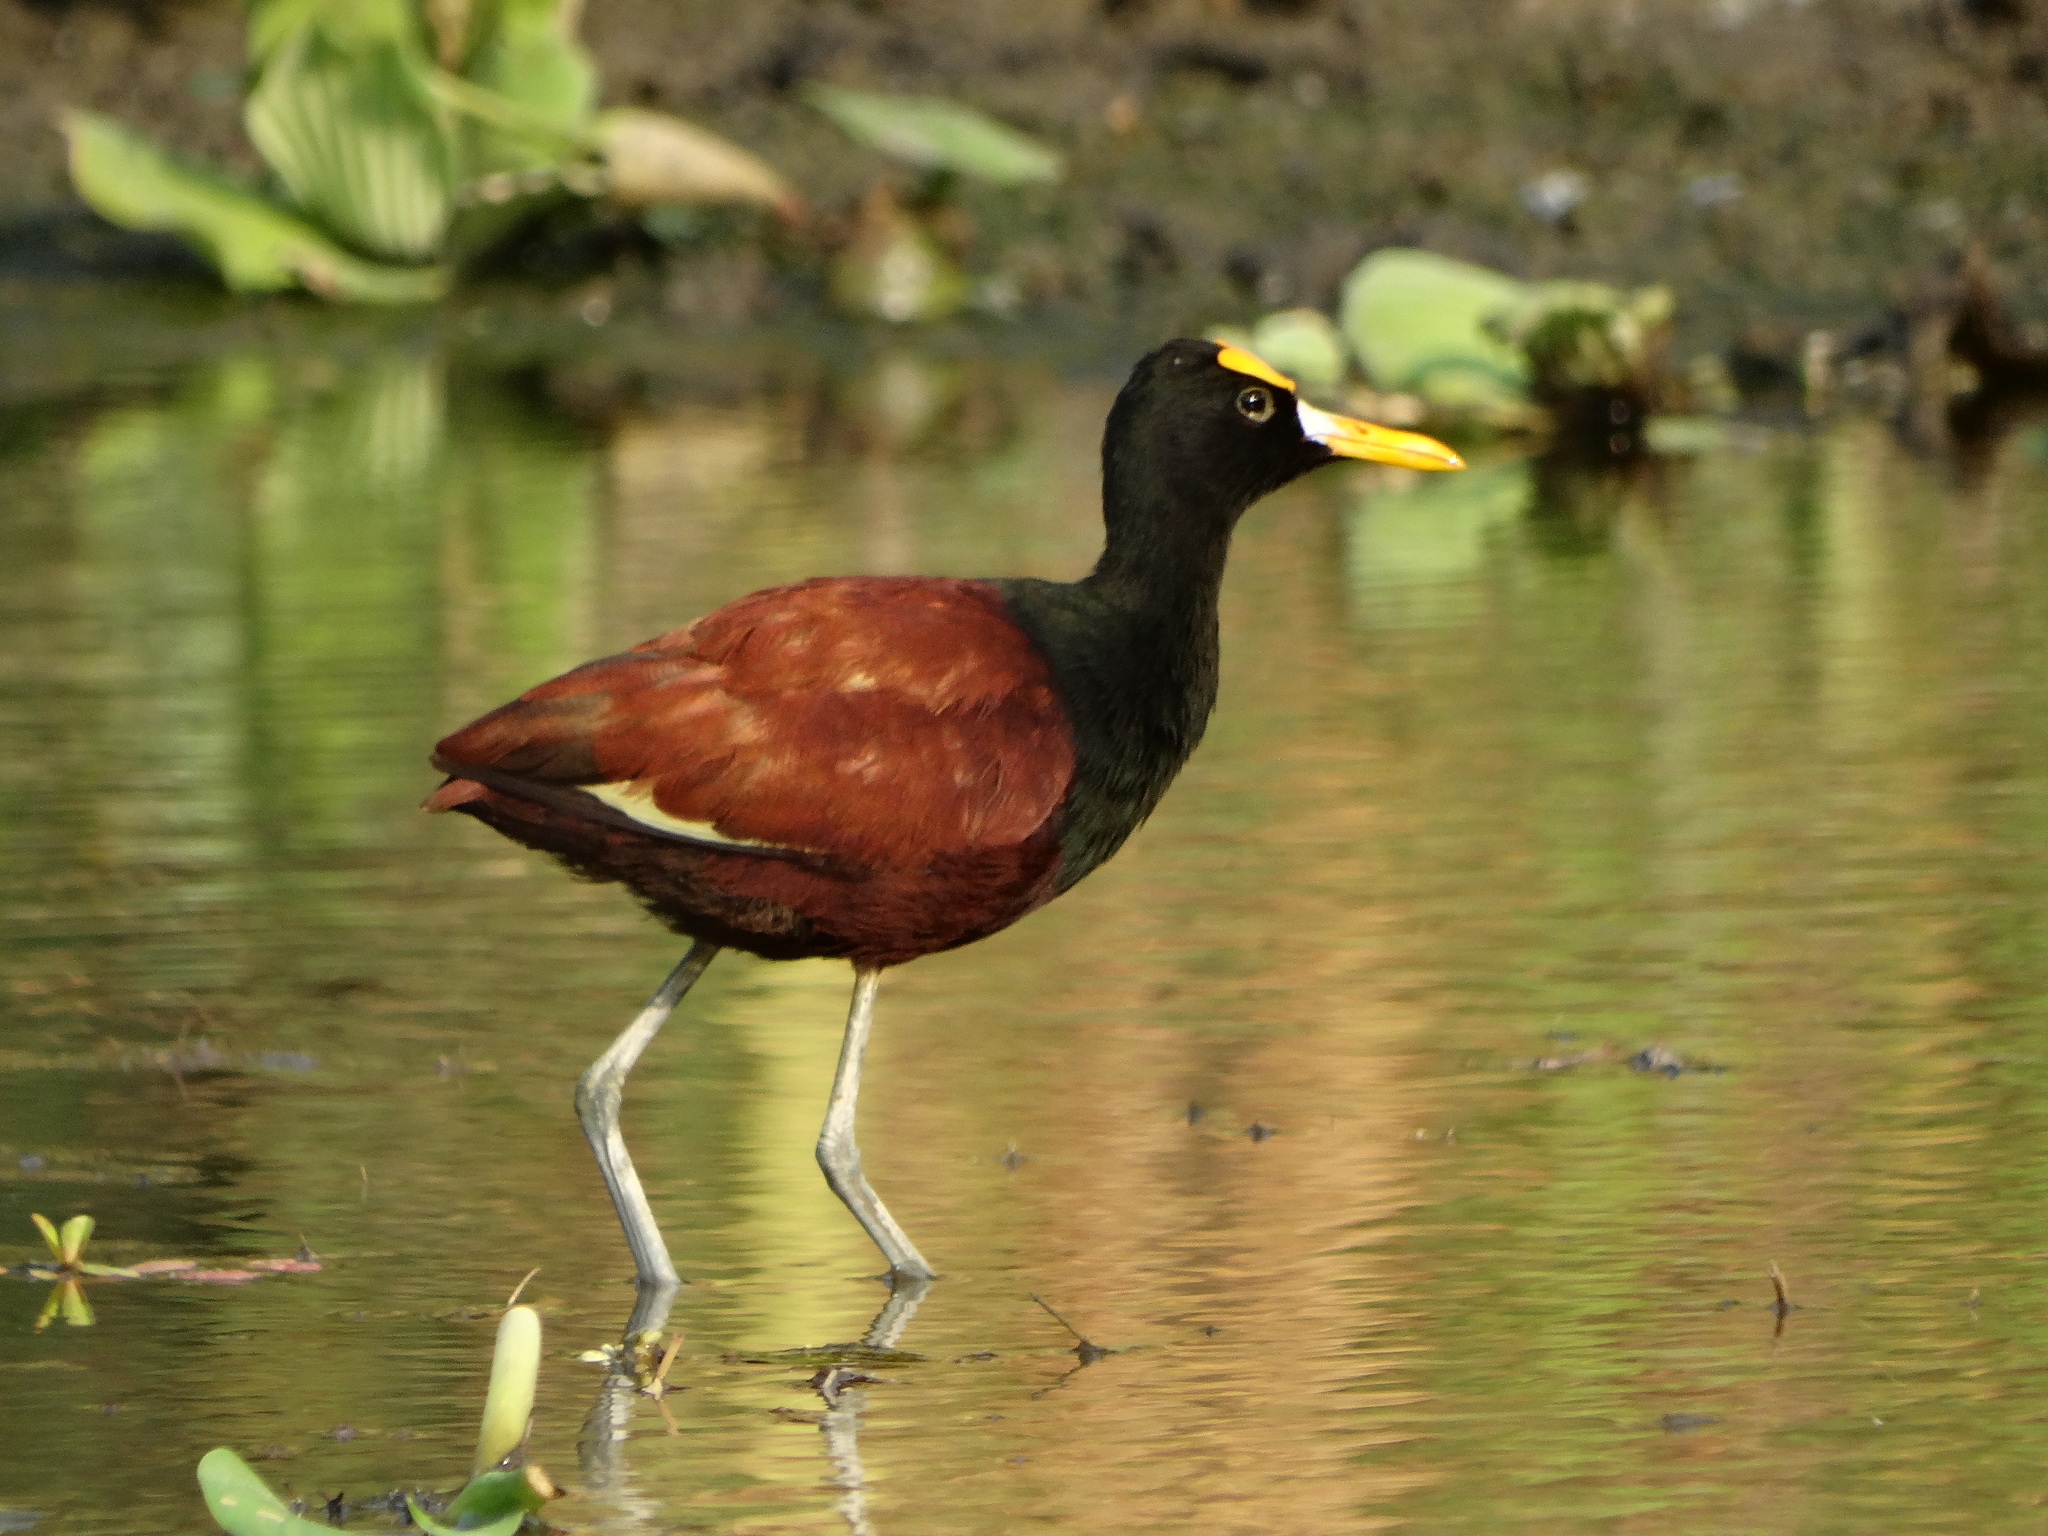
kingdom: Animalia
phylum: Chordata
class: Aves
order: Charadriiformes
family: Jacanidae
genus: Jacana
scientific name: Jacana spinosa
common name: Northern jacana
